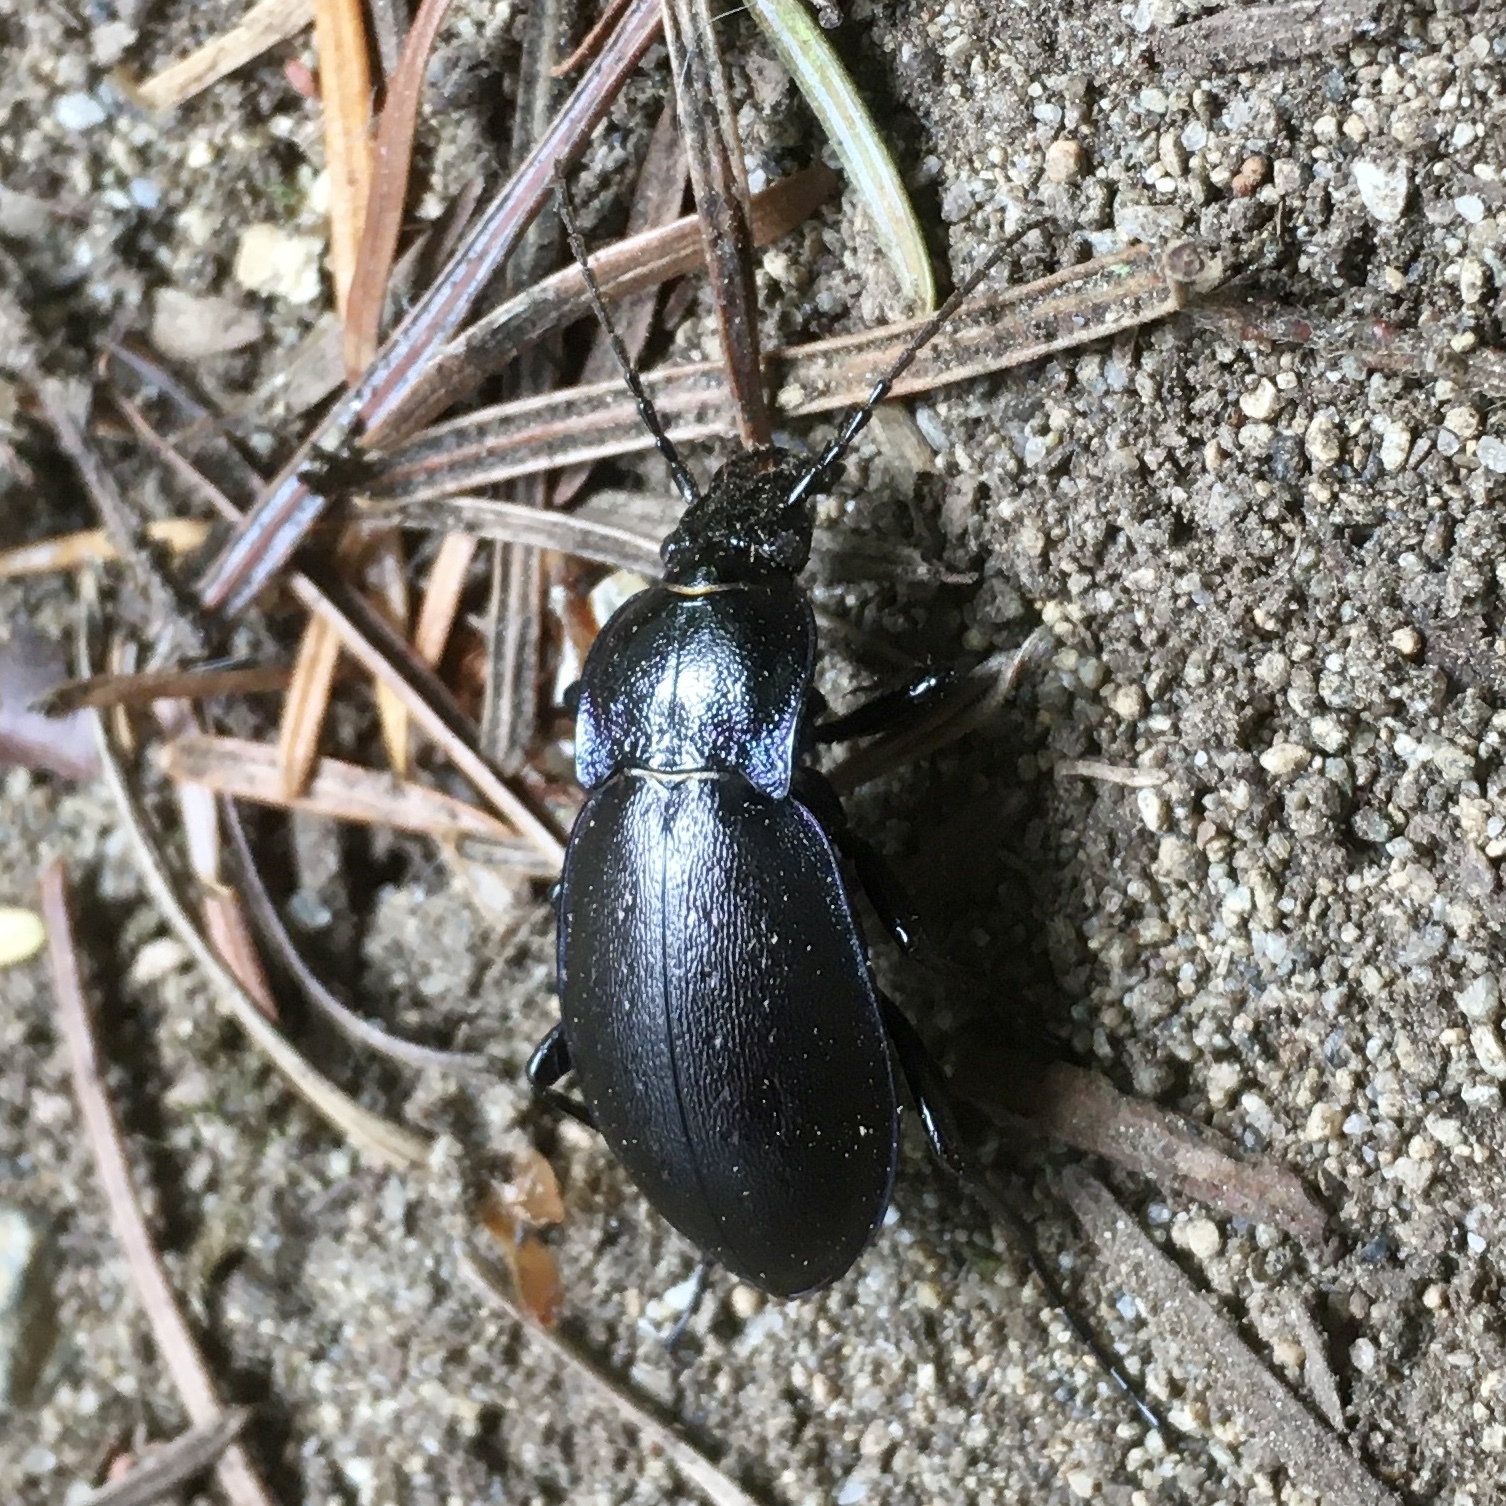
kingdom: Animalia
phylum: Arthropoda
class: Insecta
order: Coleoptera
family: Carabidae
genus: Carabus
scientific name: Carabus nemoralis
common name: European ground beetle
